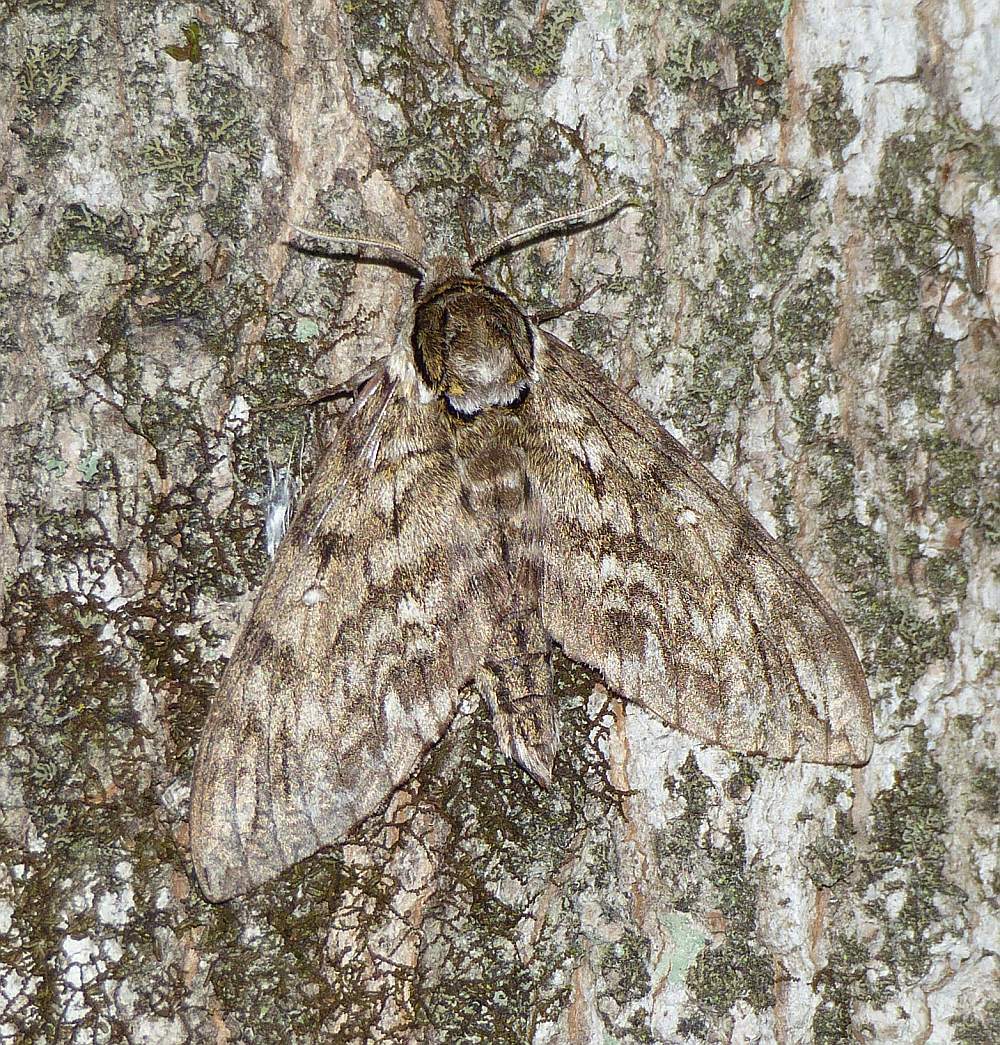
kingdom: Animalia
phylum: Arthropoda
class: Insecta
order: Lepidoptera
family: Sphingidae
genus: Ceratomia
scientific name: Ceratomia undulosa
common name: Waved sphinx
